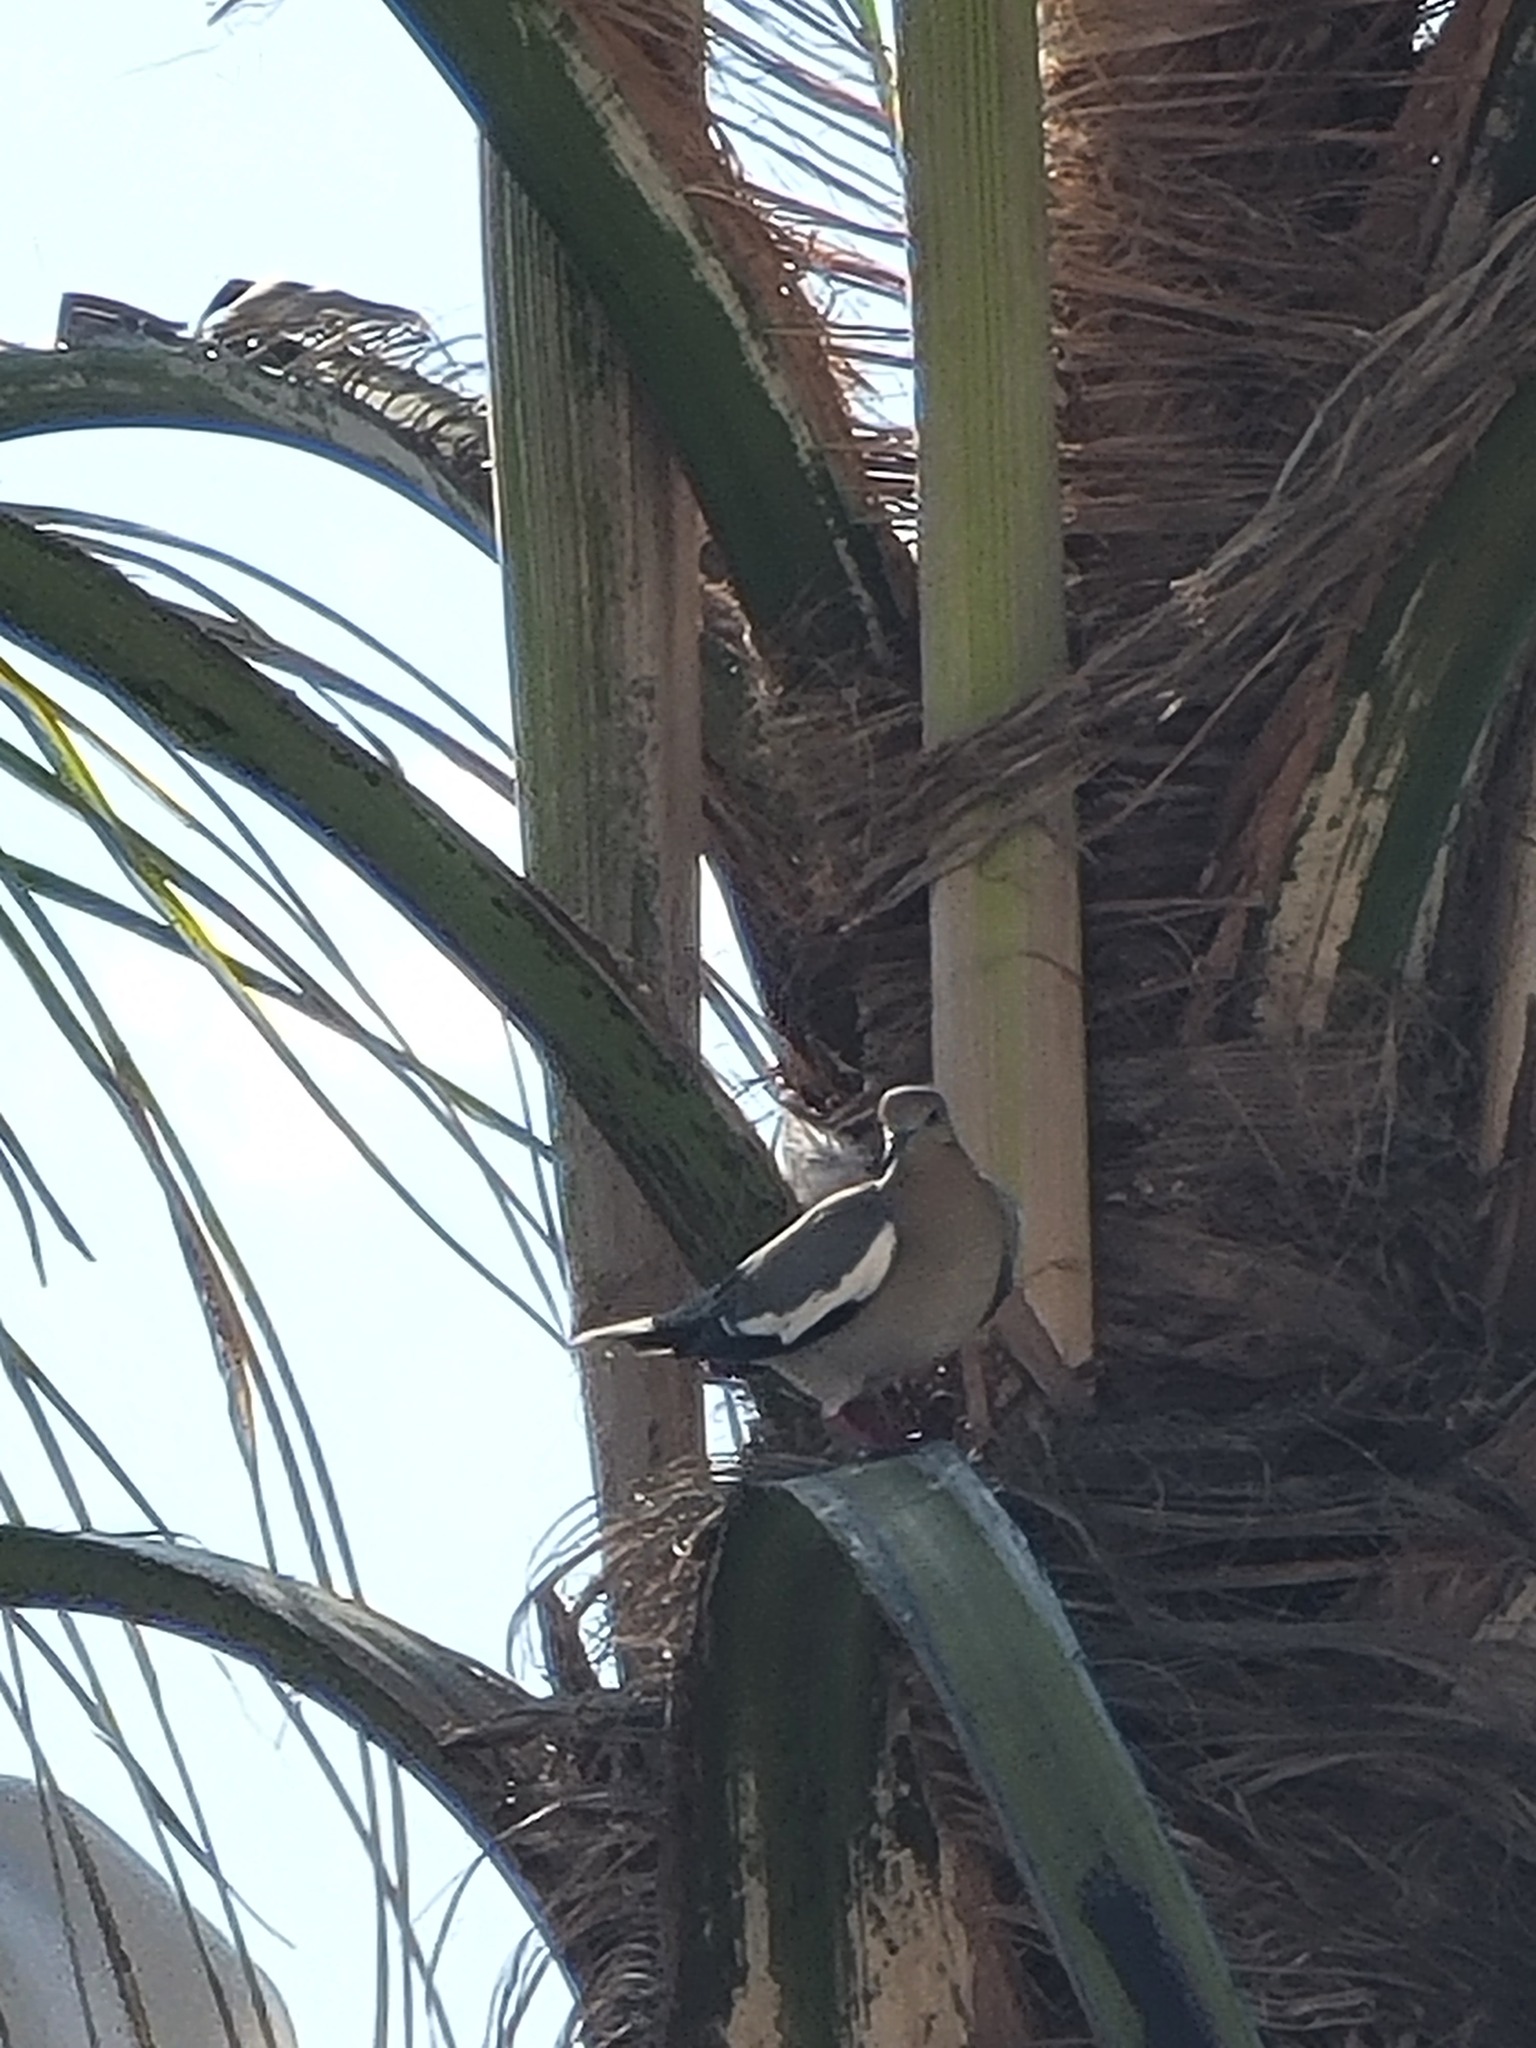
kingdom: Animalia
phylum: Chordata
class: Aves
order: Columbiformes
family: Columbidae
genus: Zenaida
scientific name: Zenaida asiatica
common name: White-winged dove
